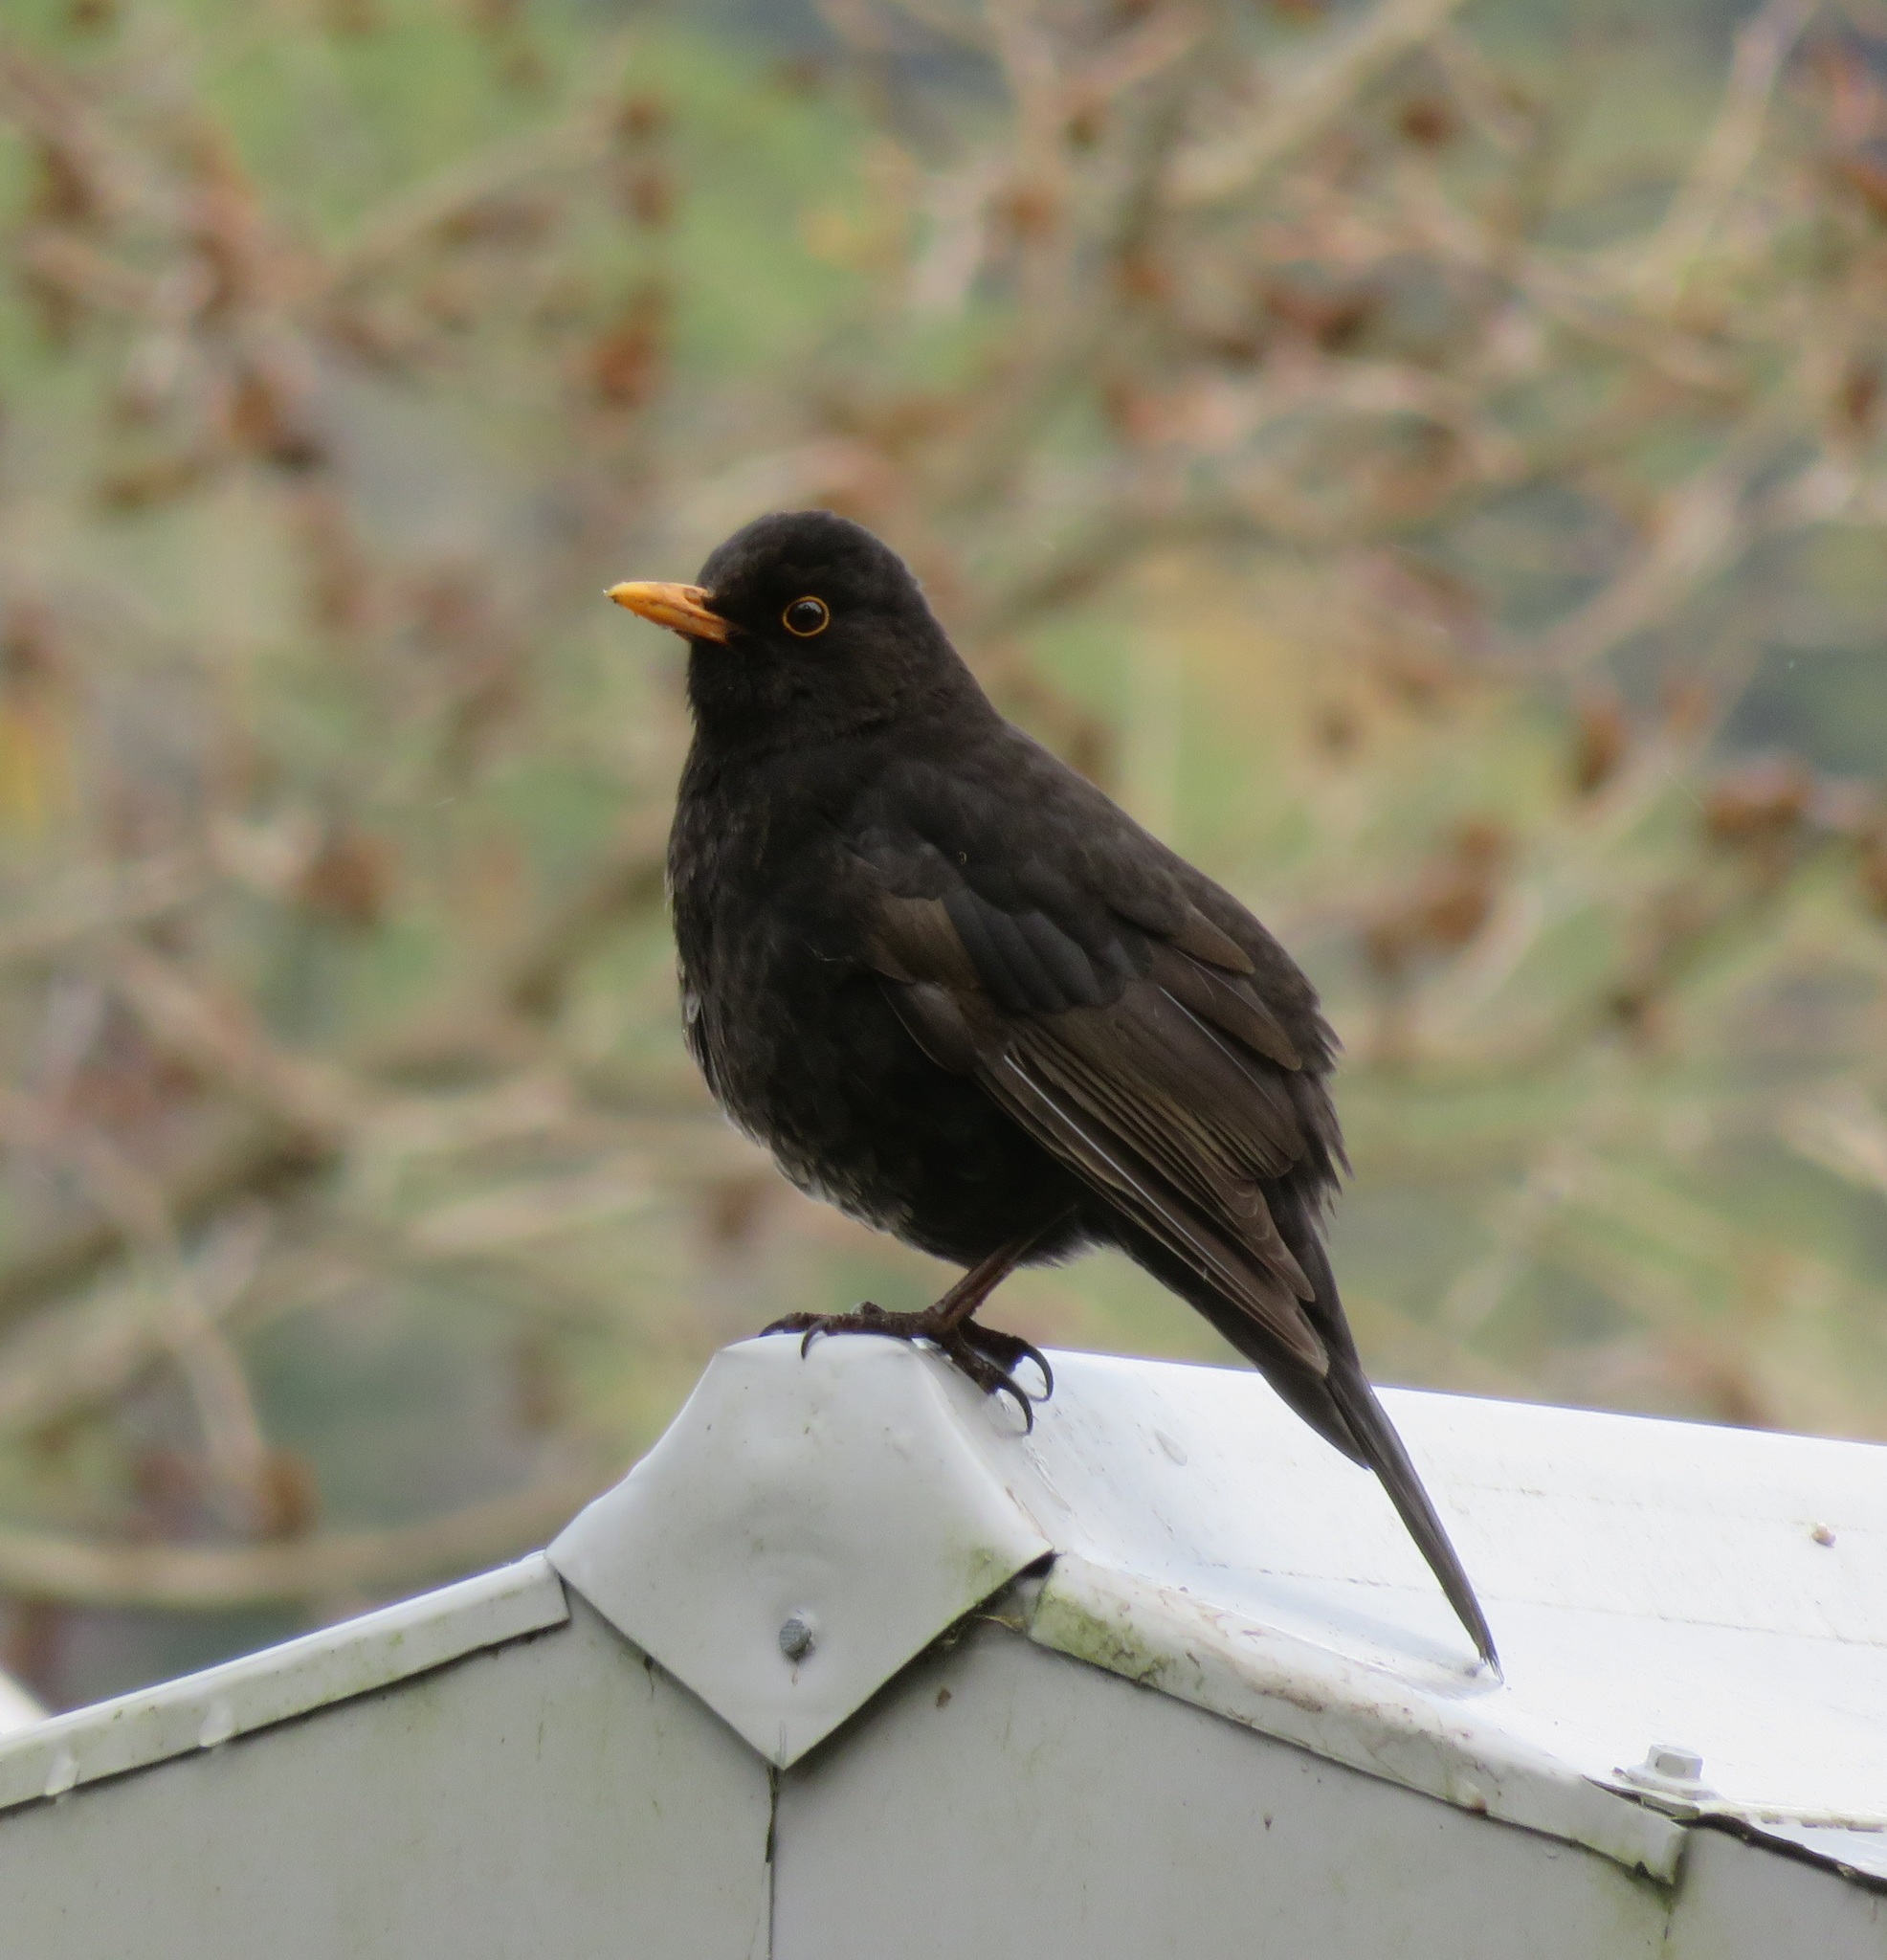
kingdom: Animalia
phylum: Chordata
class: Aves
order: Passeriformes
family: Turdidae
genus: Turdus
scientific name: Turdus merula
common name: Common blackbird
